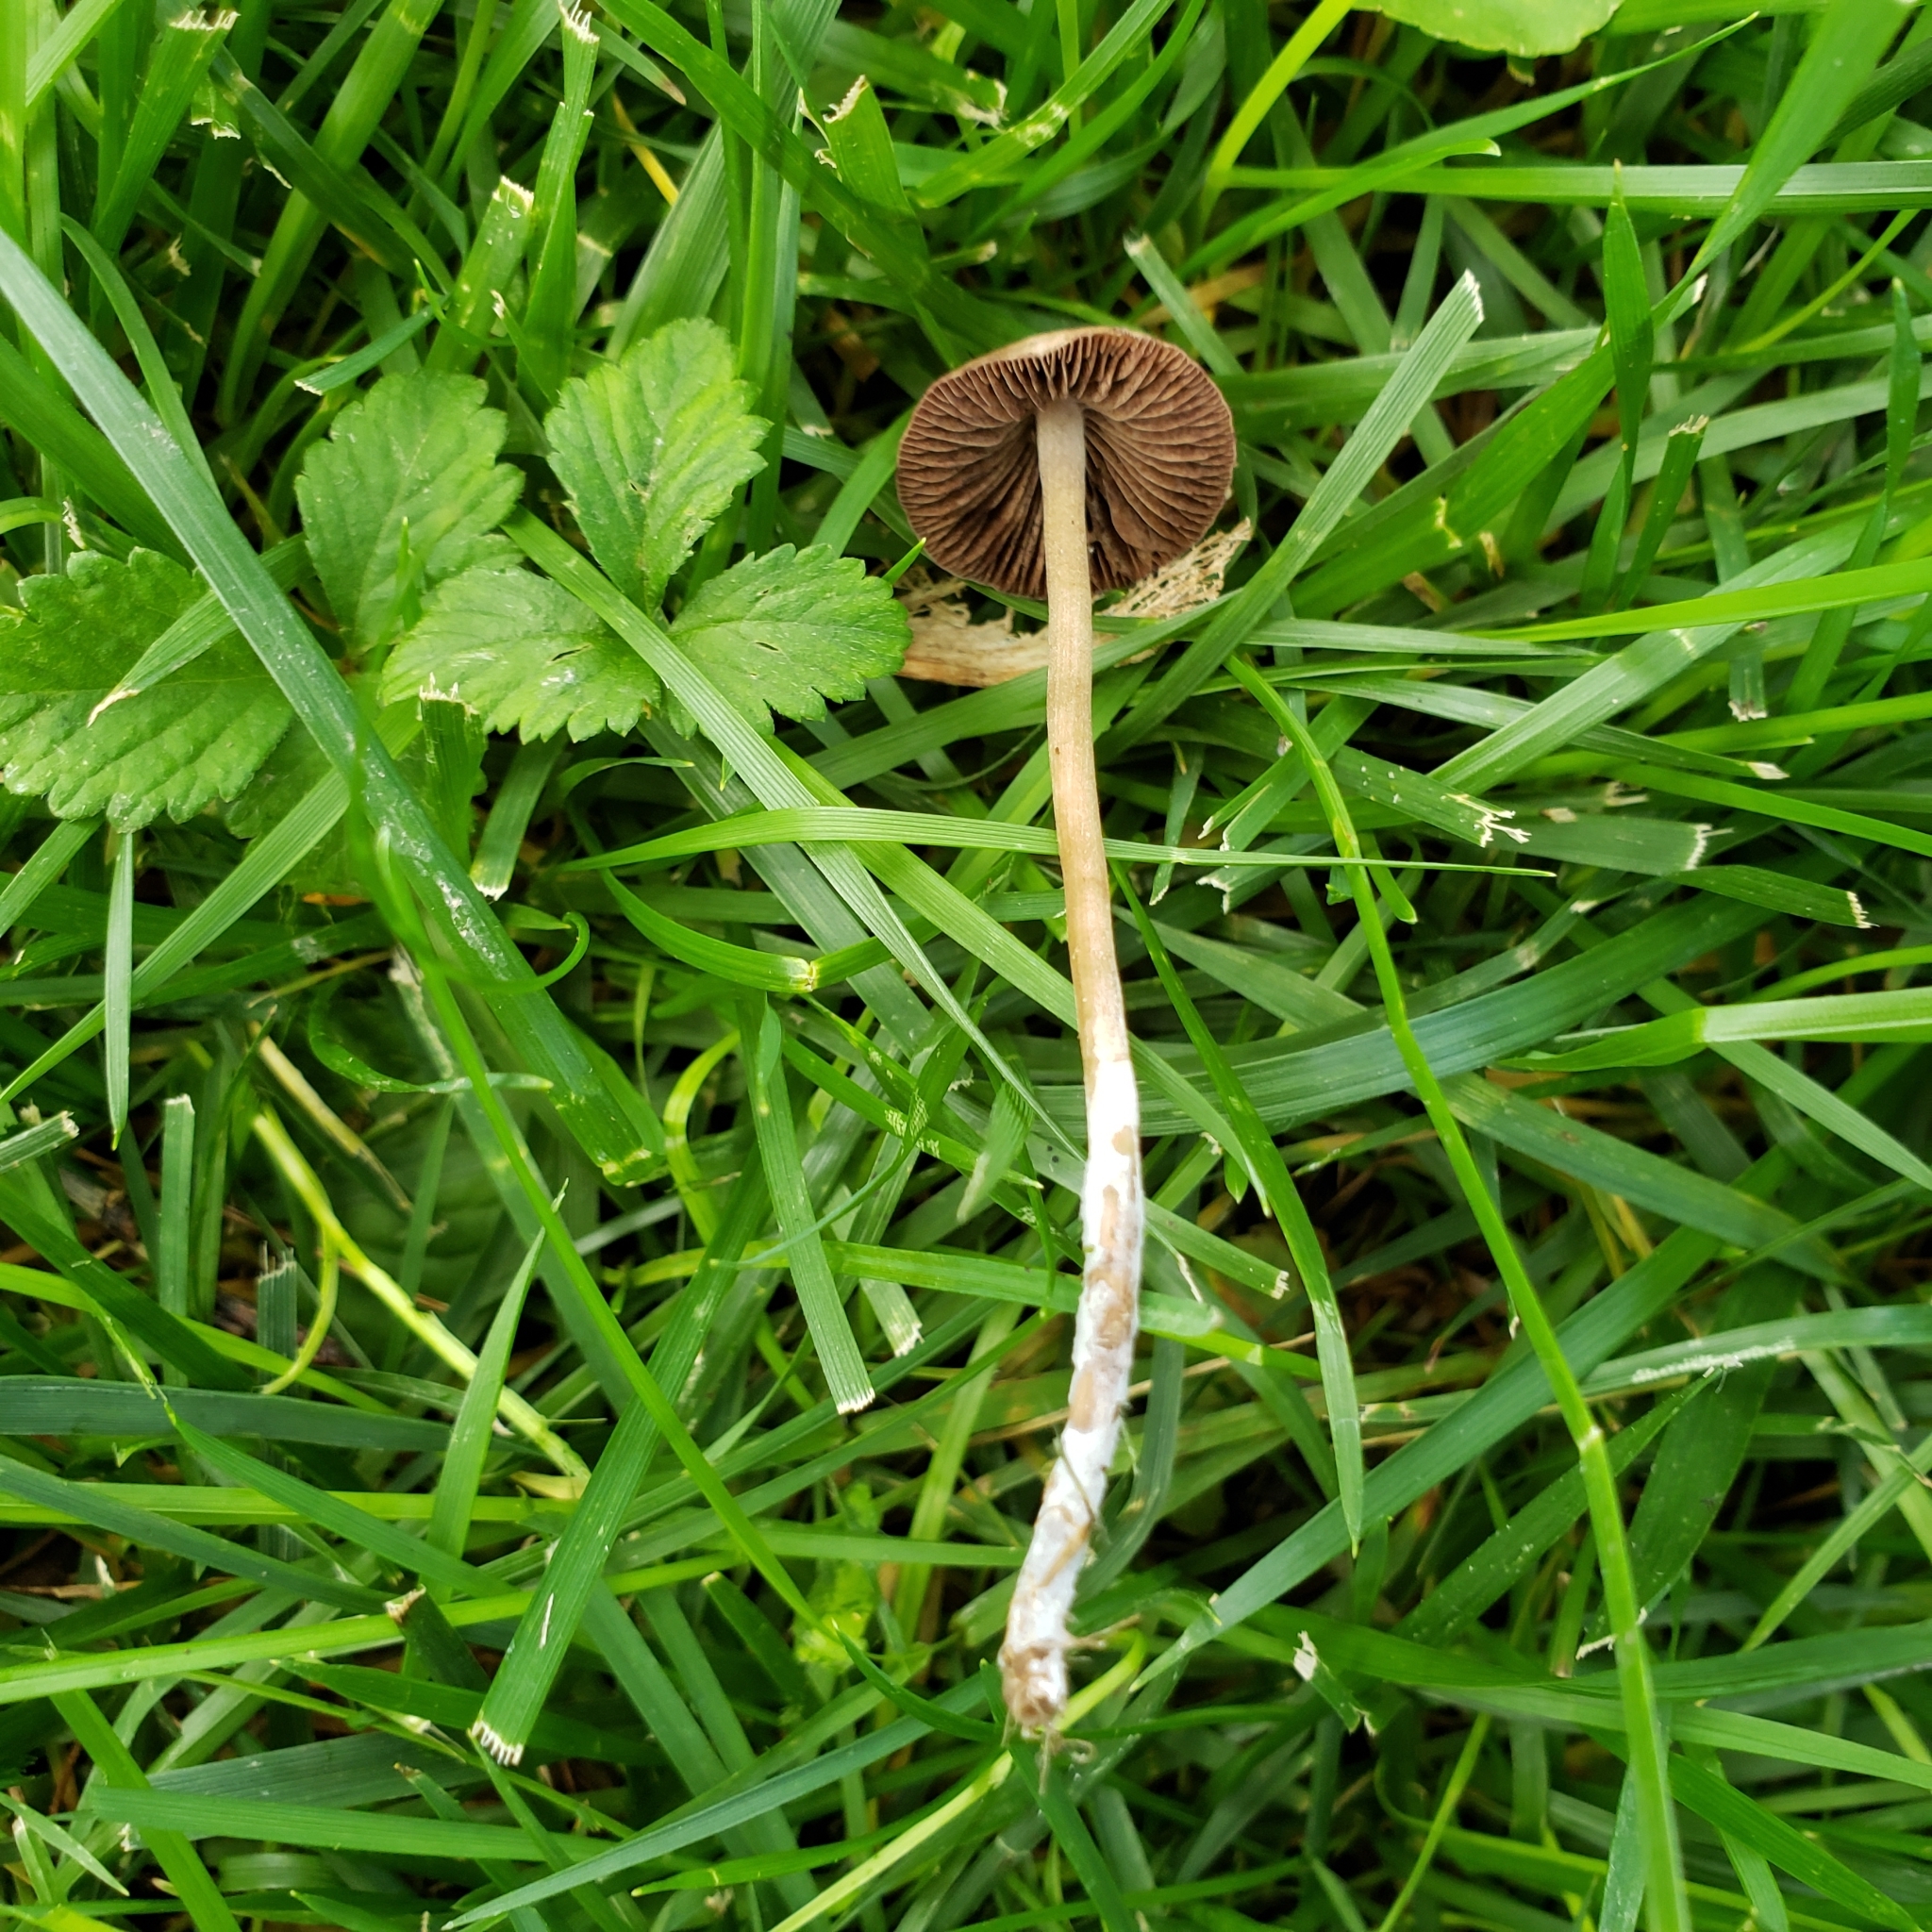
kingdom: Fungi
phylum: Basidiomycota
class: Agaricomycetes
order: Agaricales
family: Bolbitiaceae
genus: Panaeolina
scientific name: Panaeolina foenisecii
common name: Brown hay cap
